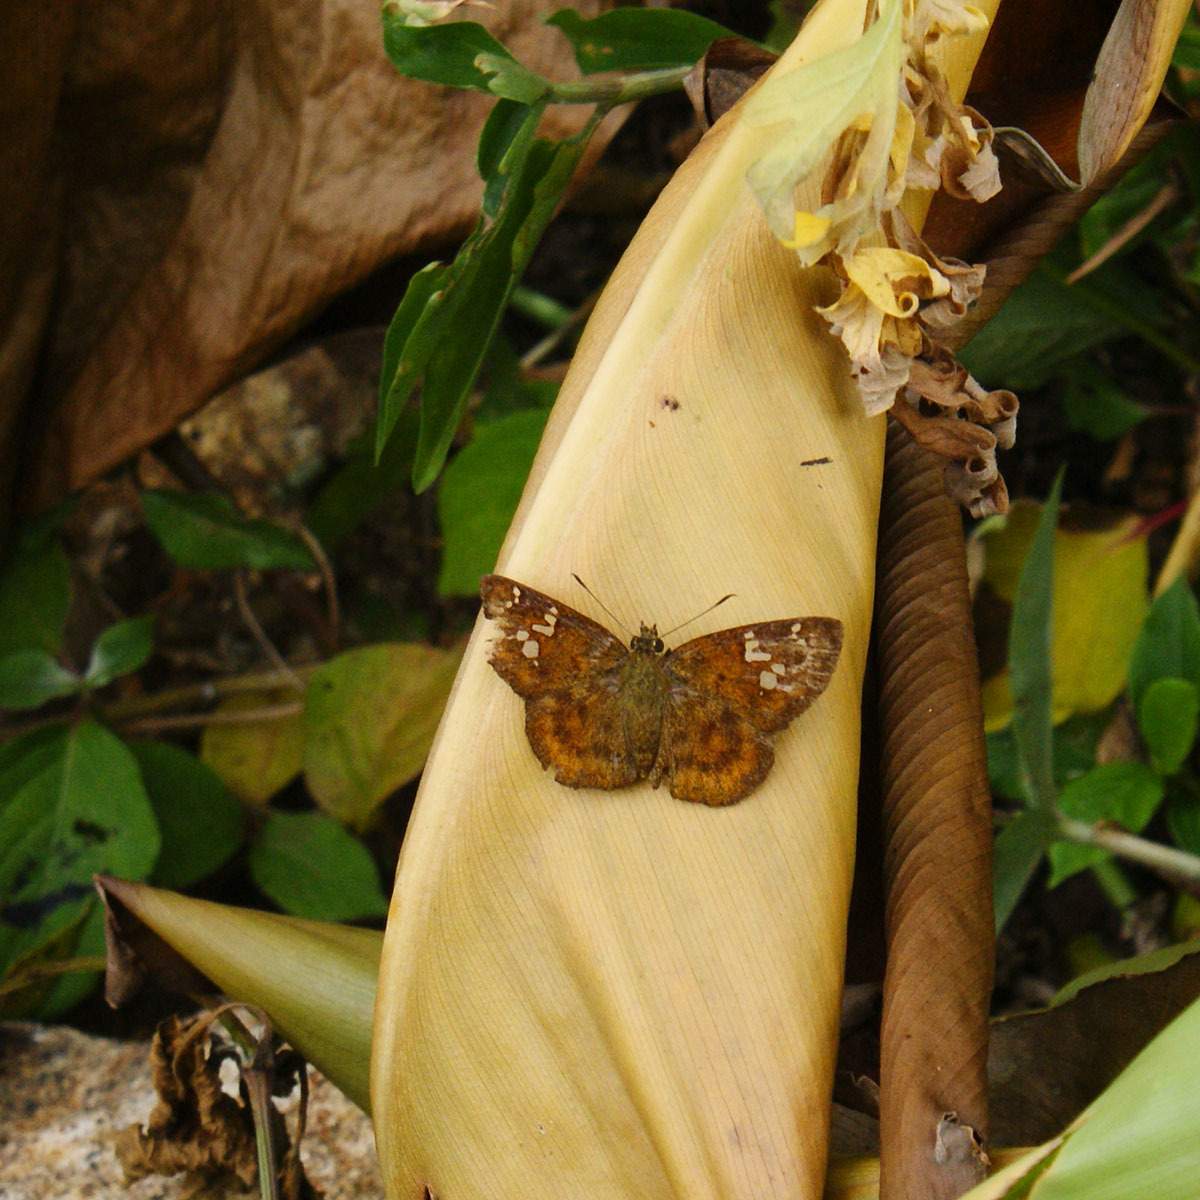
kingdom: Animalia
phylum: Arthropoda
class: Insecta
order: Lepidoptera
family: Hesperiidae
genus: Pseudocoladenia
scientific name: Pseudocoladenia dan
